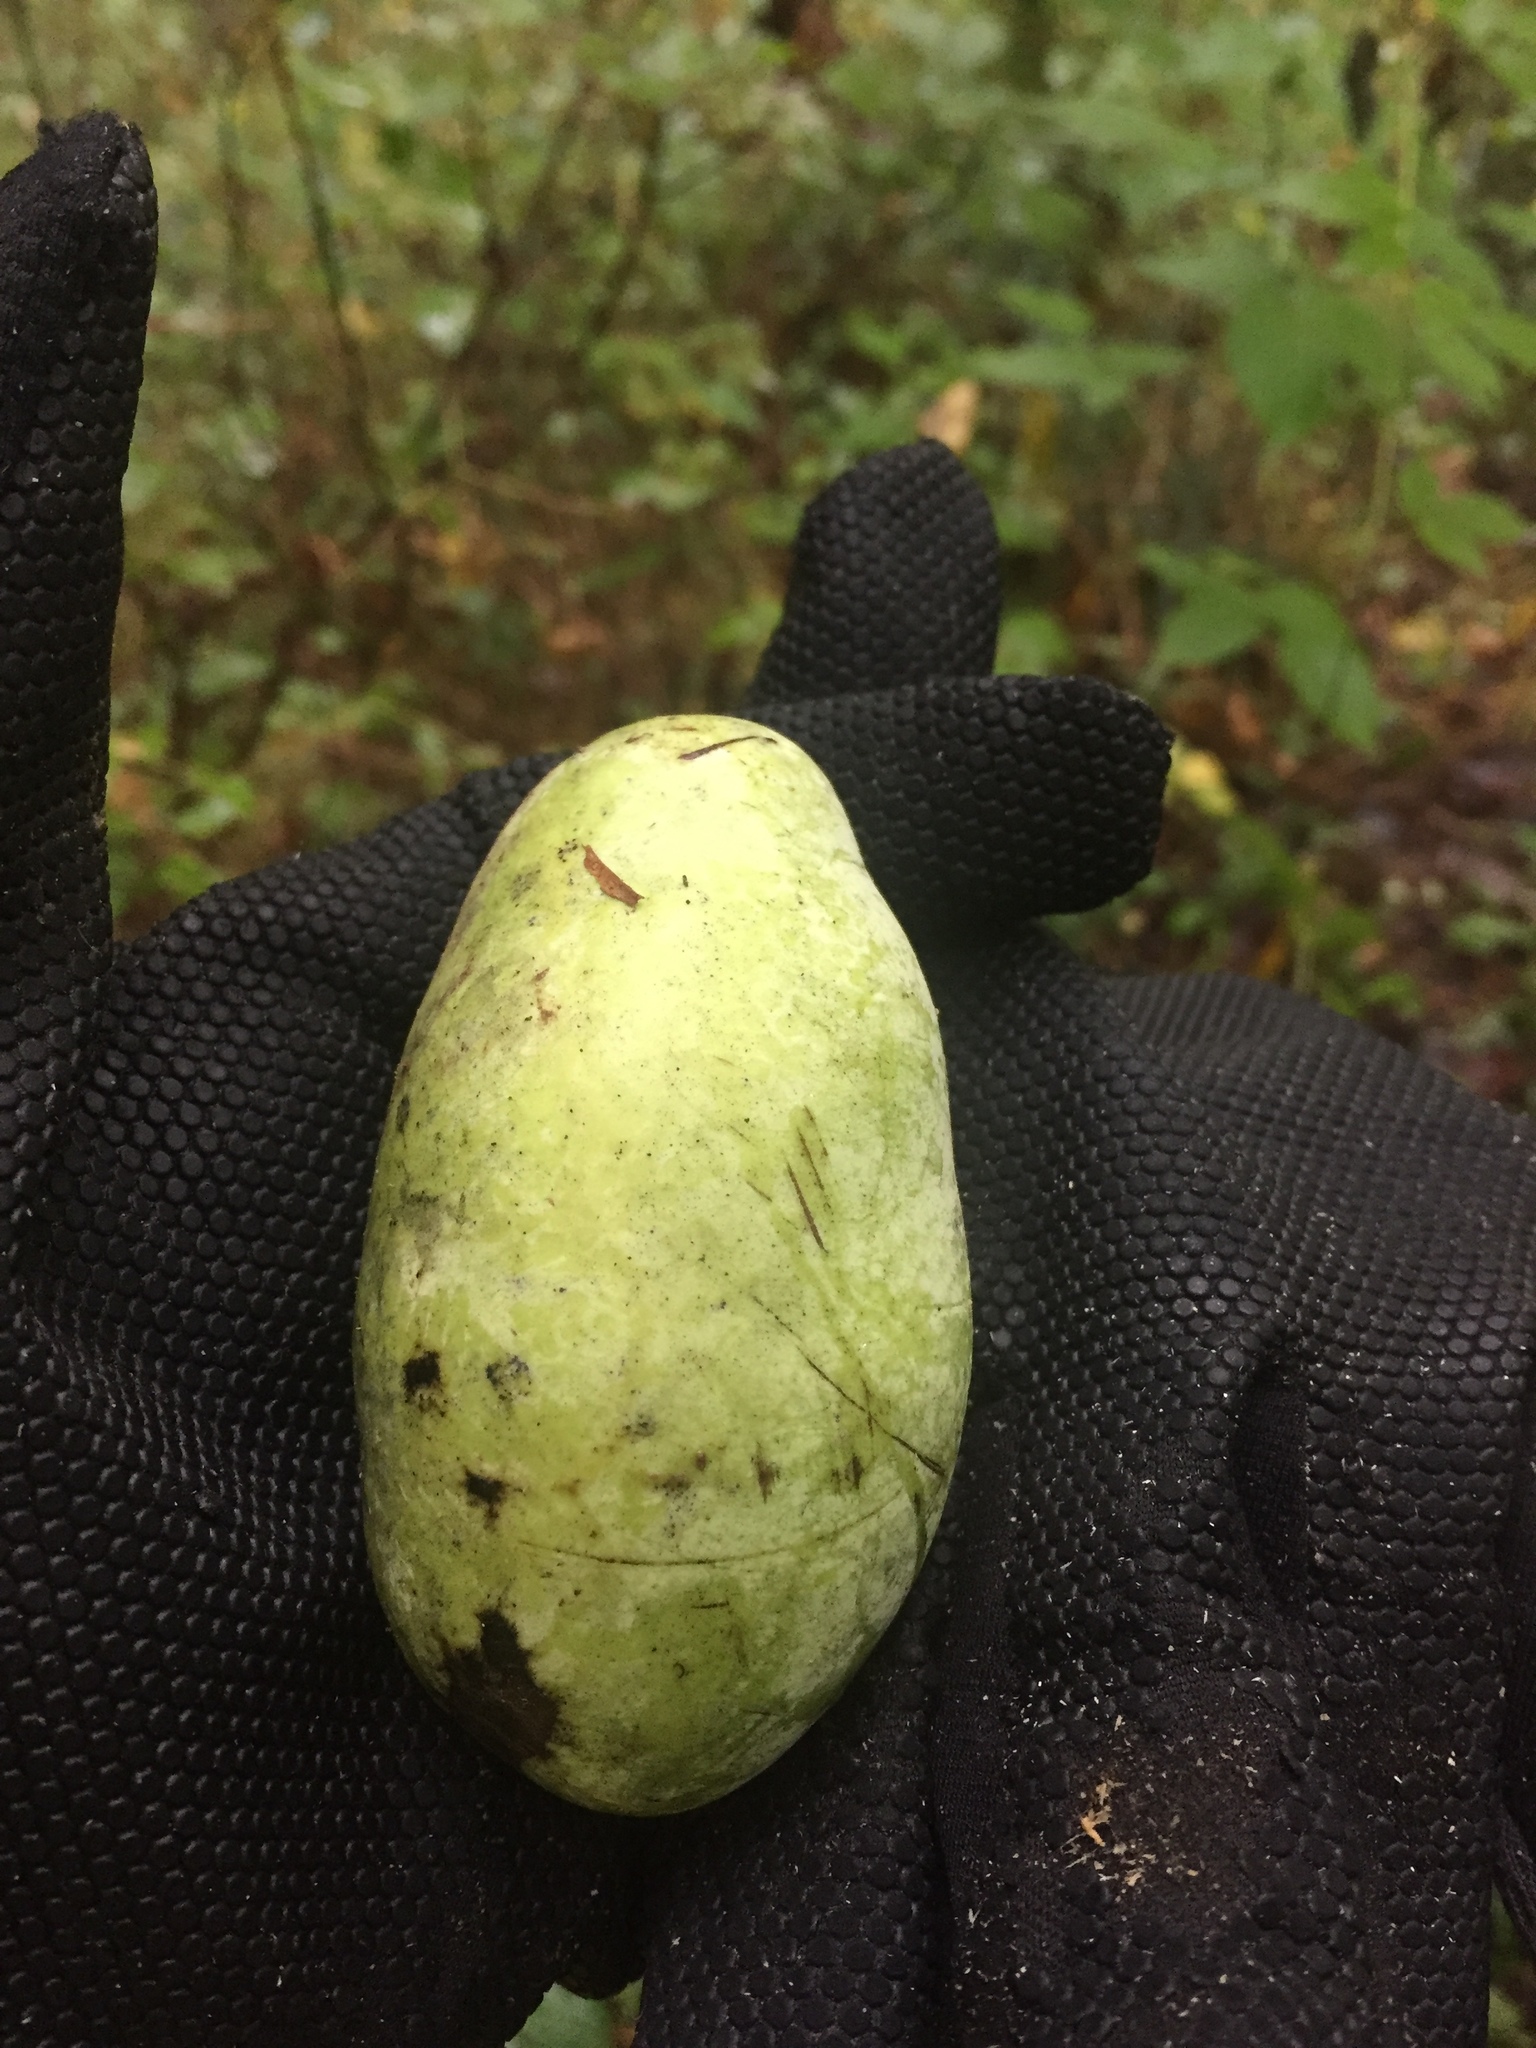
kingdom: Plantae
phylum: Tracheophyta
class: Magnoliopsida
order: Magnoliales
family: Annonaceae
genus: Asimina
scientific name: Asimina triloba
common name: Dog-banana
